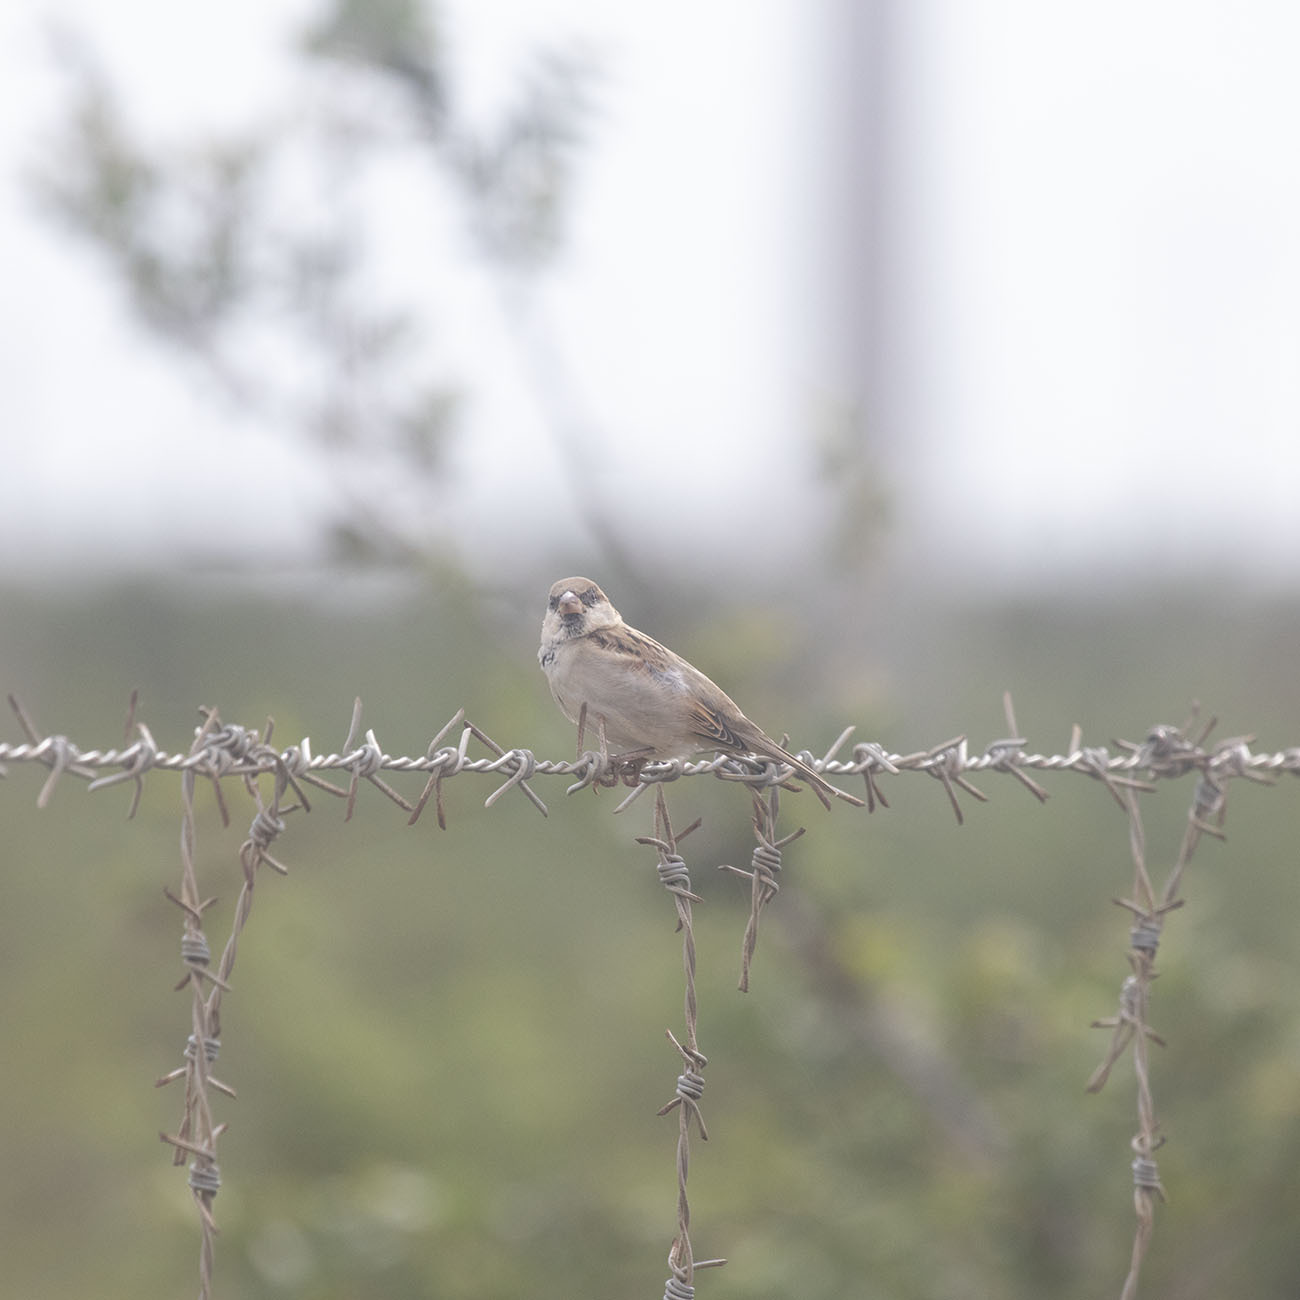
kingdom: Animalia
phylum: Chordata
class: Aves
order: Passeriformes
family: Passeridae
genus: Passer
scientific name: Passer domesticus
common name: House sparrow
